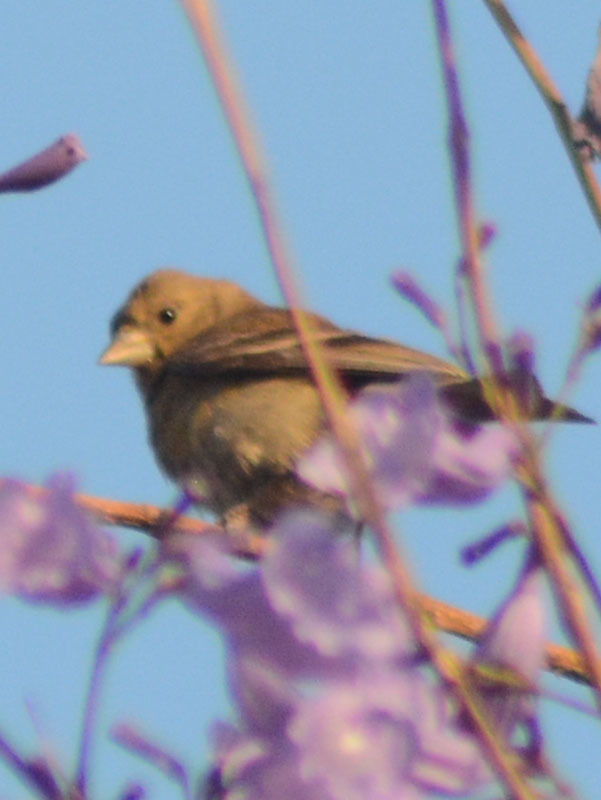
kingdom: Animalia
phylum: Chordata
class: Aves
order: Passeriformes
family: Fringillidae
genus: Spinus
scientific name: Spinus psaltria
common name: Lesser goldfinch
